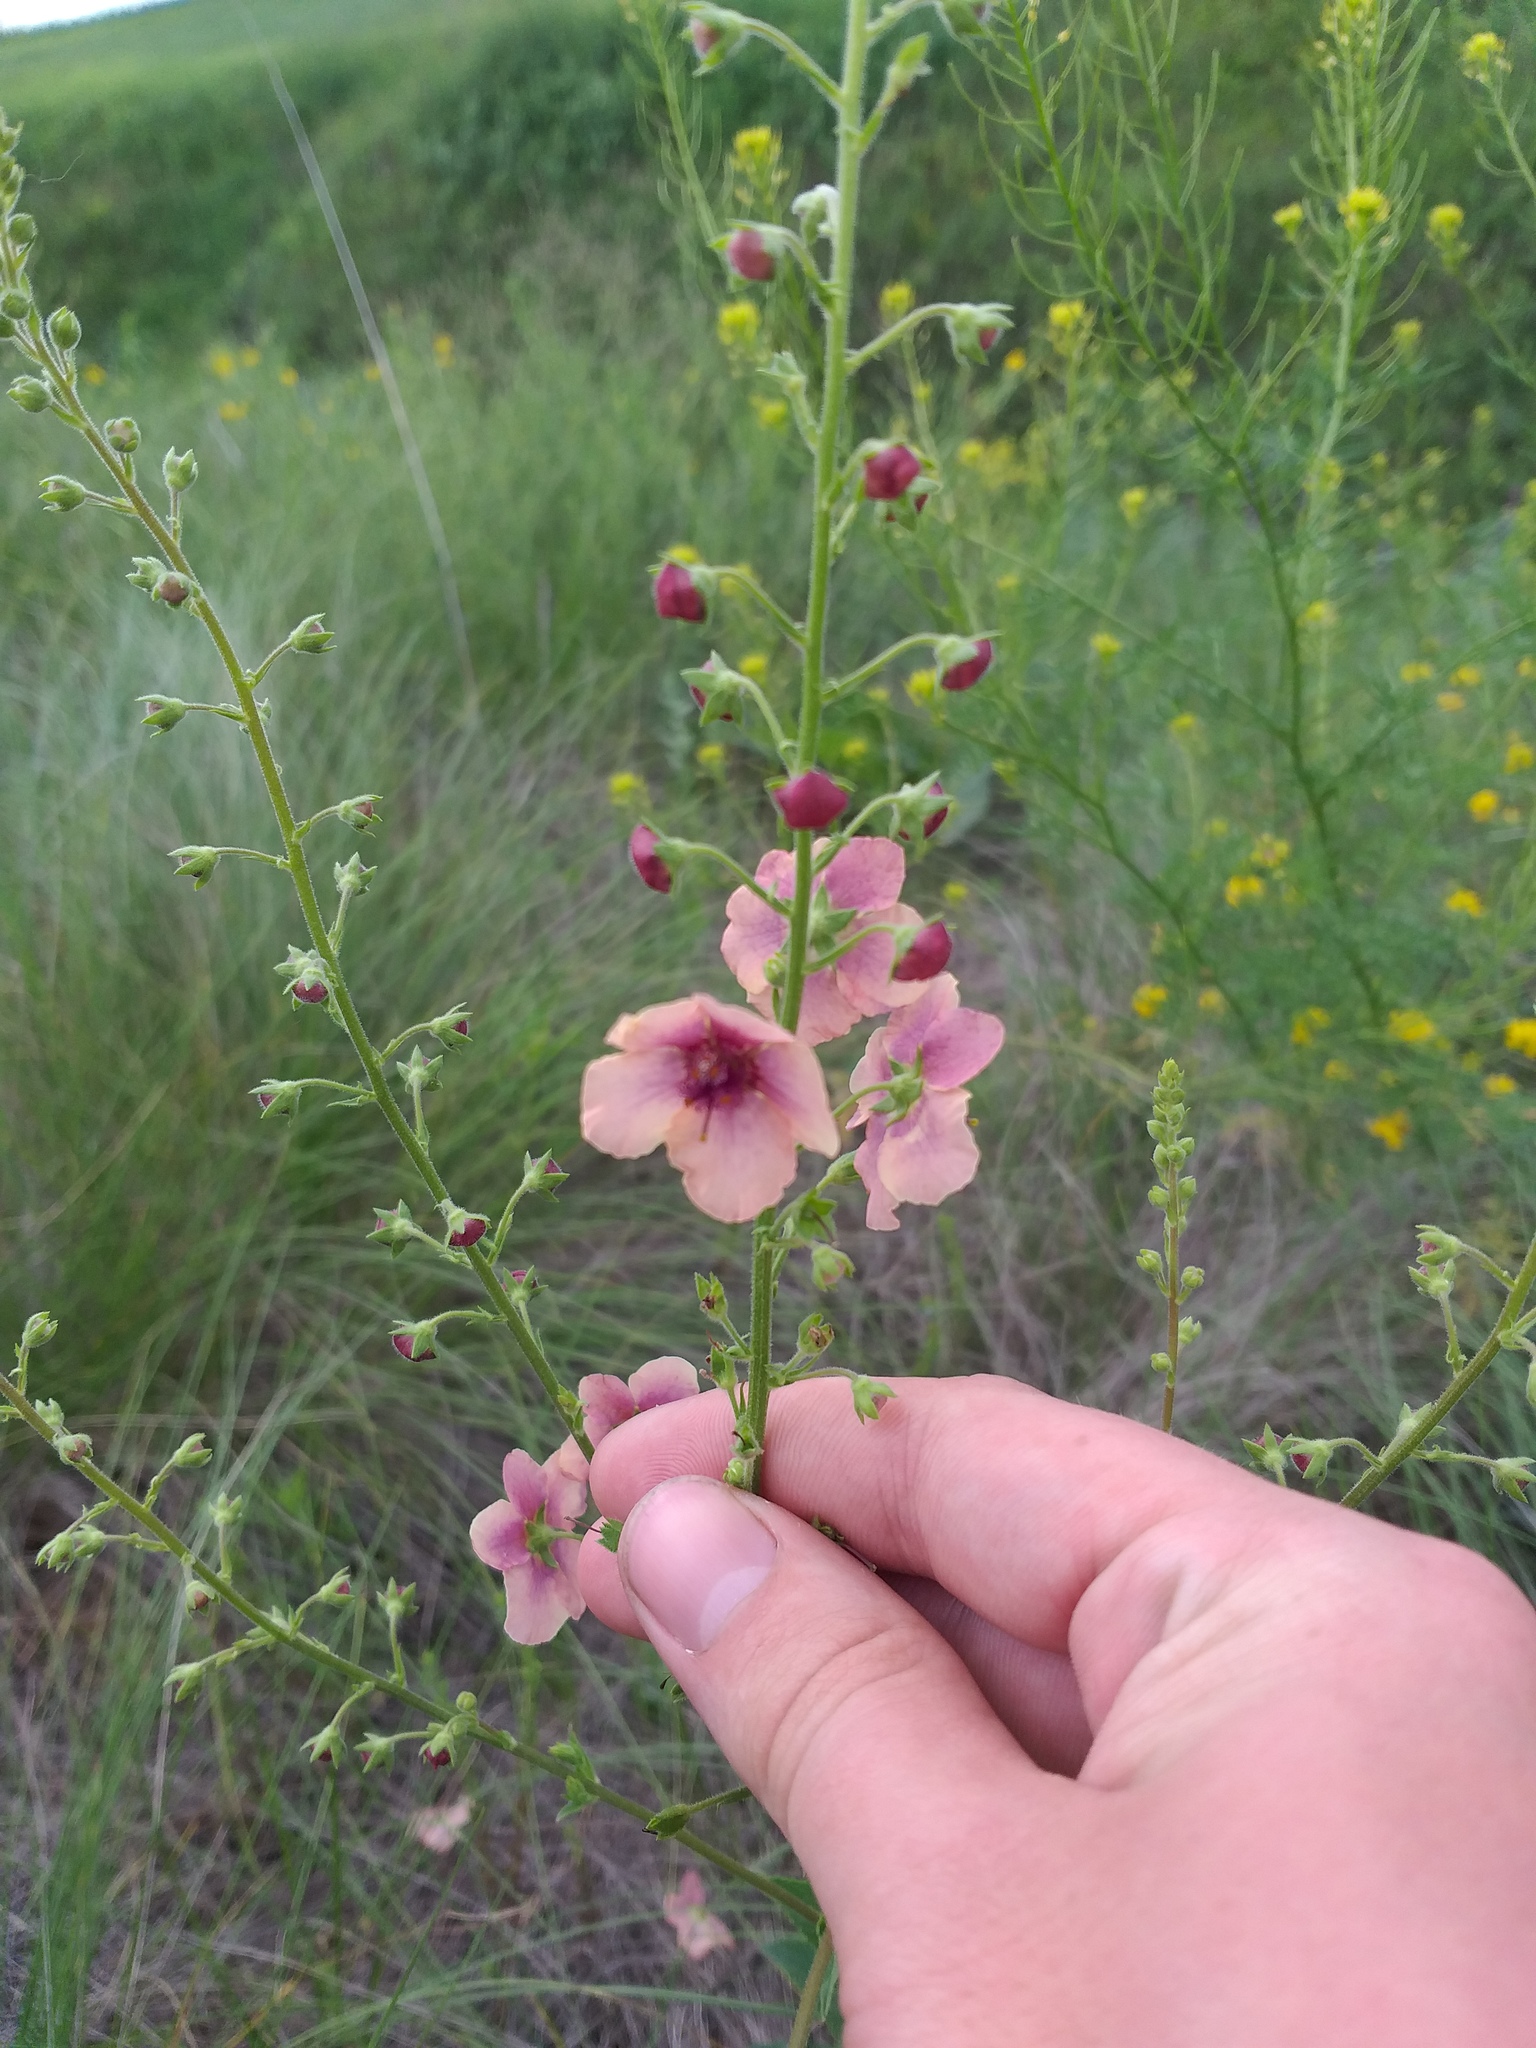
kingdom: Plantae
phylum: Tracheophyta
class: Magnoliopsida
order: Lamiales
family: Scrophulariaceae
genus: Verbascum
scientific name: Verbascum rubiginosum
